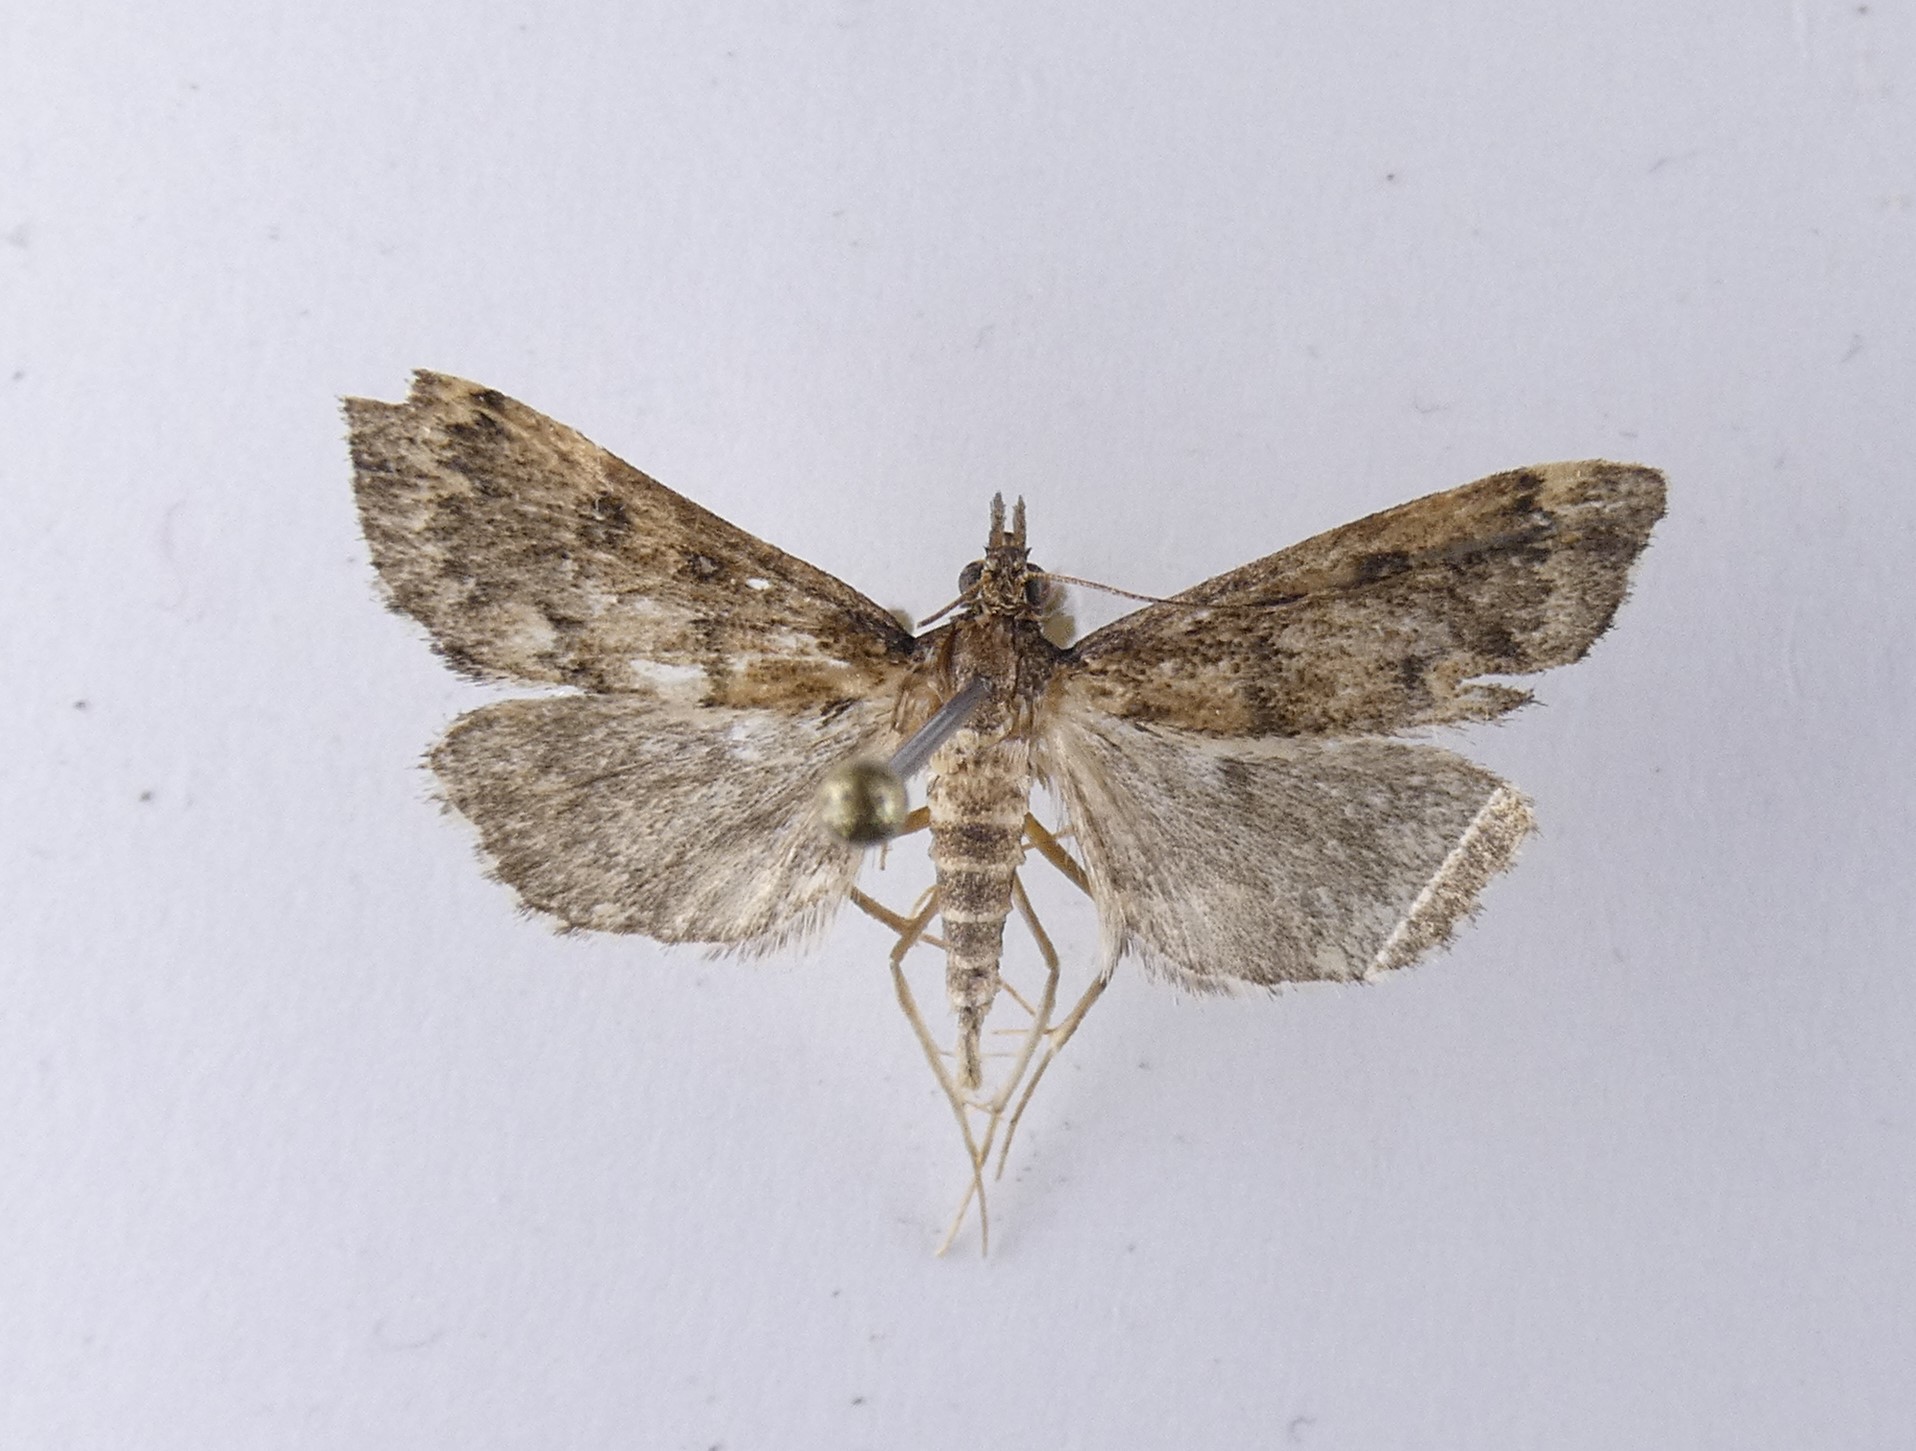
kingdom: Animalia
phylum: Arthropoda
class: Insecta
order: Lepidoptera
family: Crambidae
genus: Loxostege
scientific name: Loxostege Proternia philocapna
